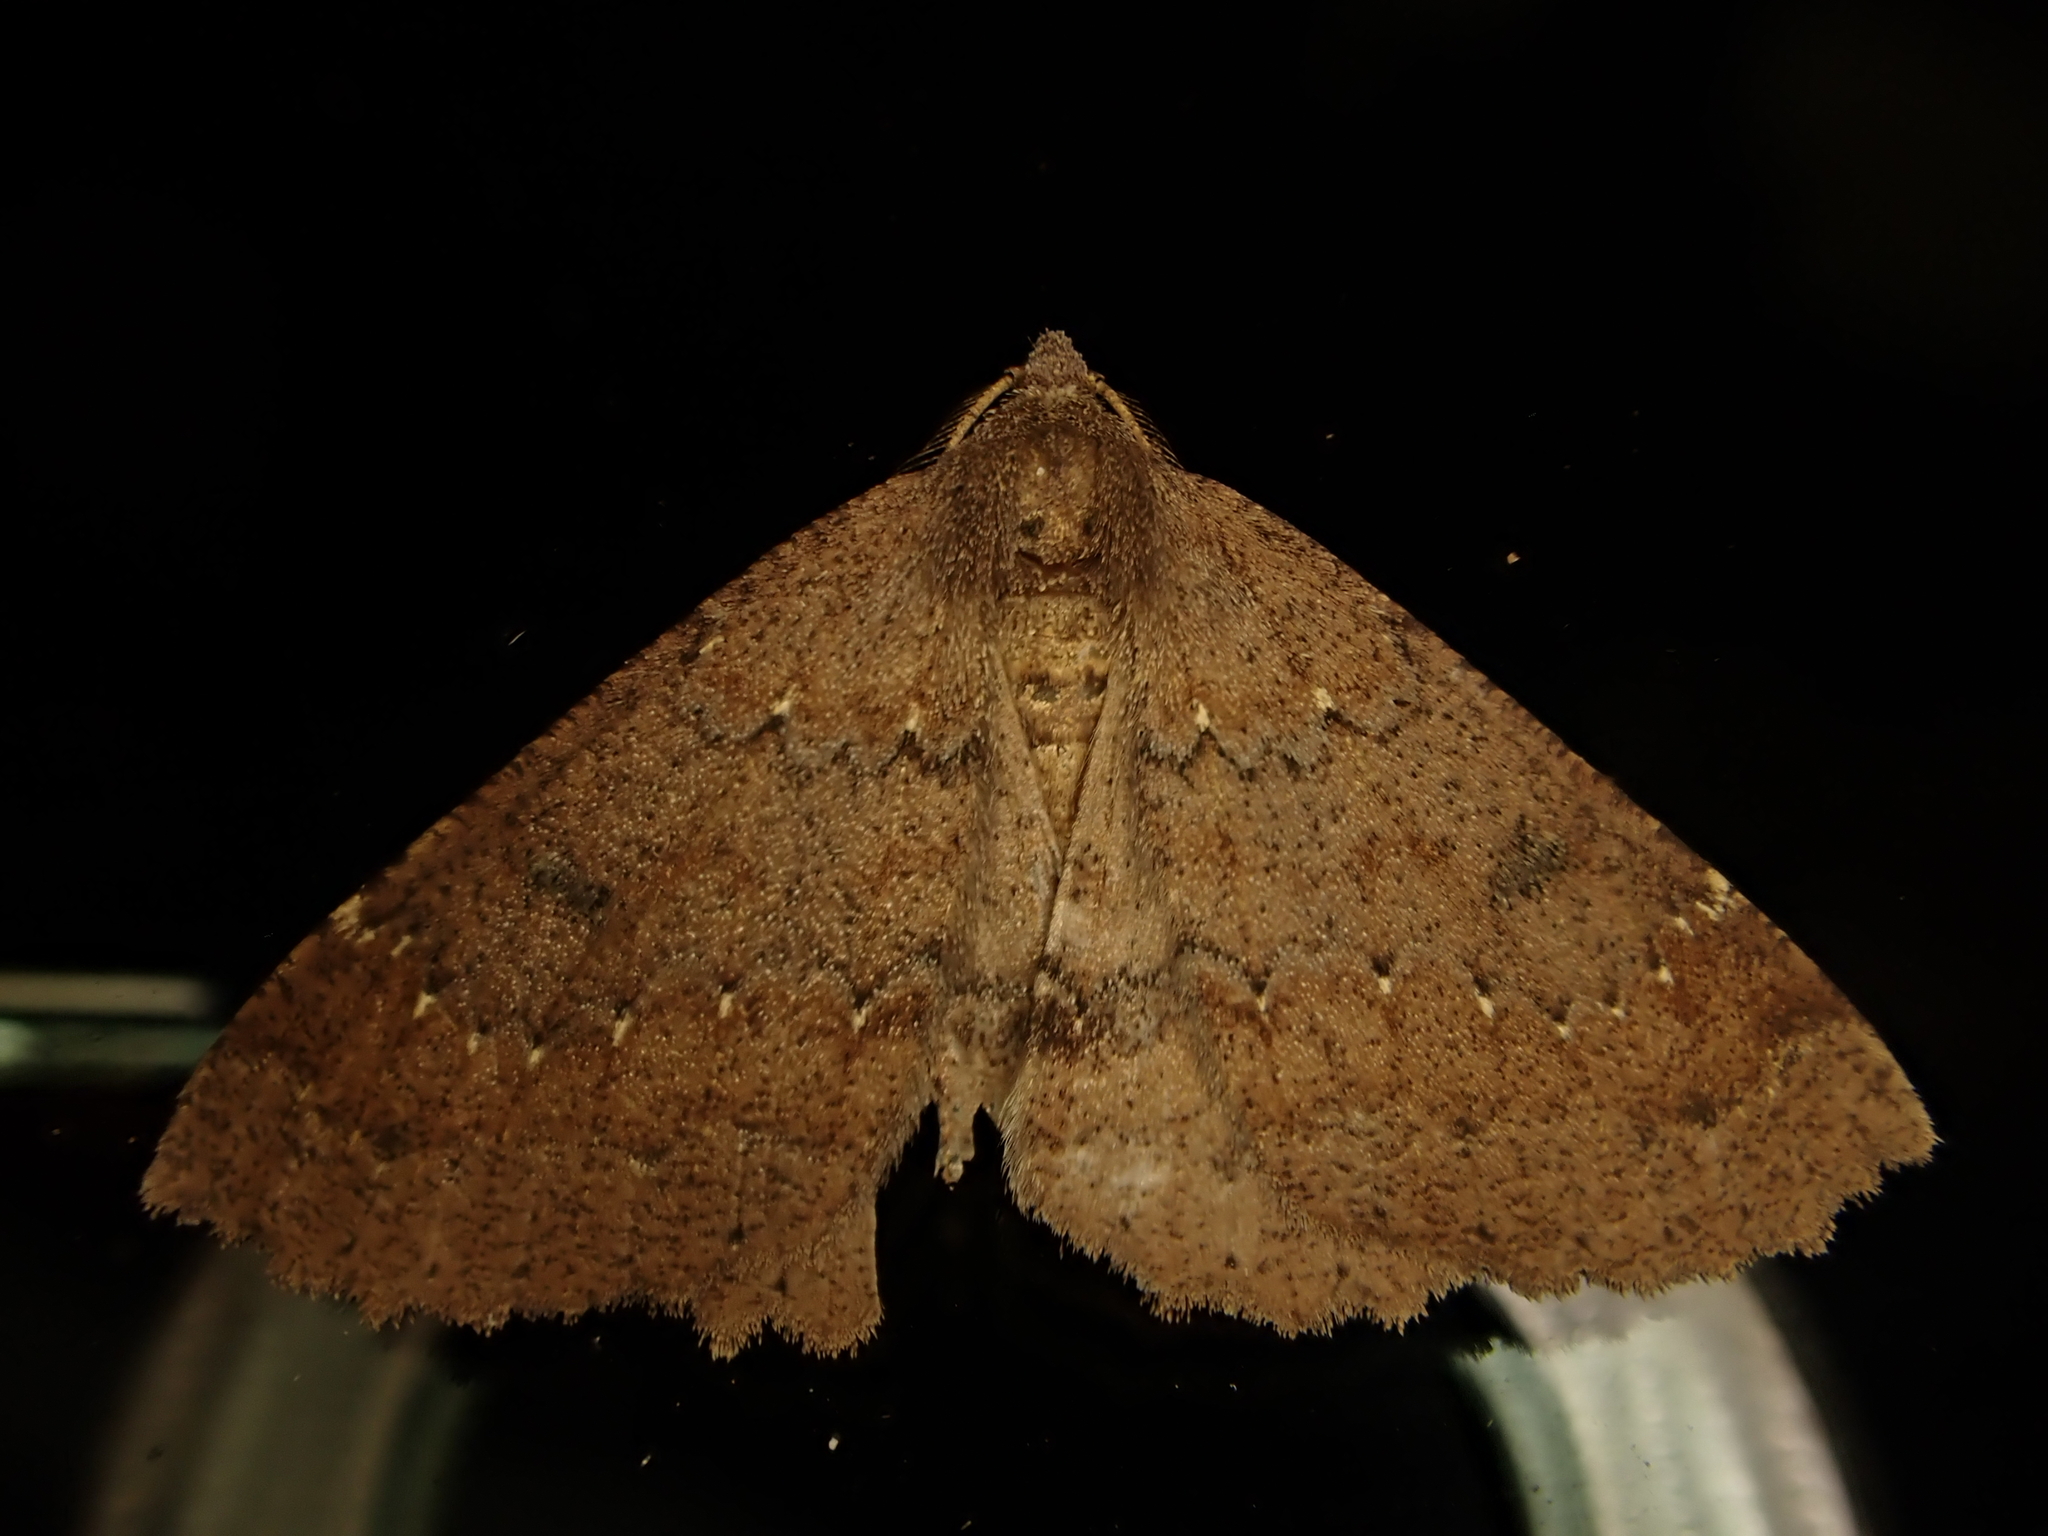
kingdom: Animalia
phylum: Arthropoda
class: Insecta
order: Lepidoptera
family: Geometridae
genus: Cleora
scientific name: Cleora scriptaria
